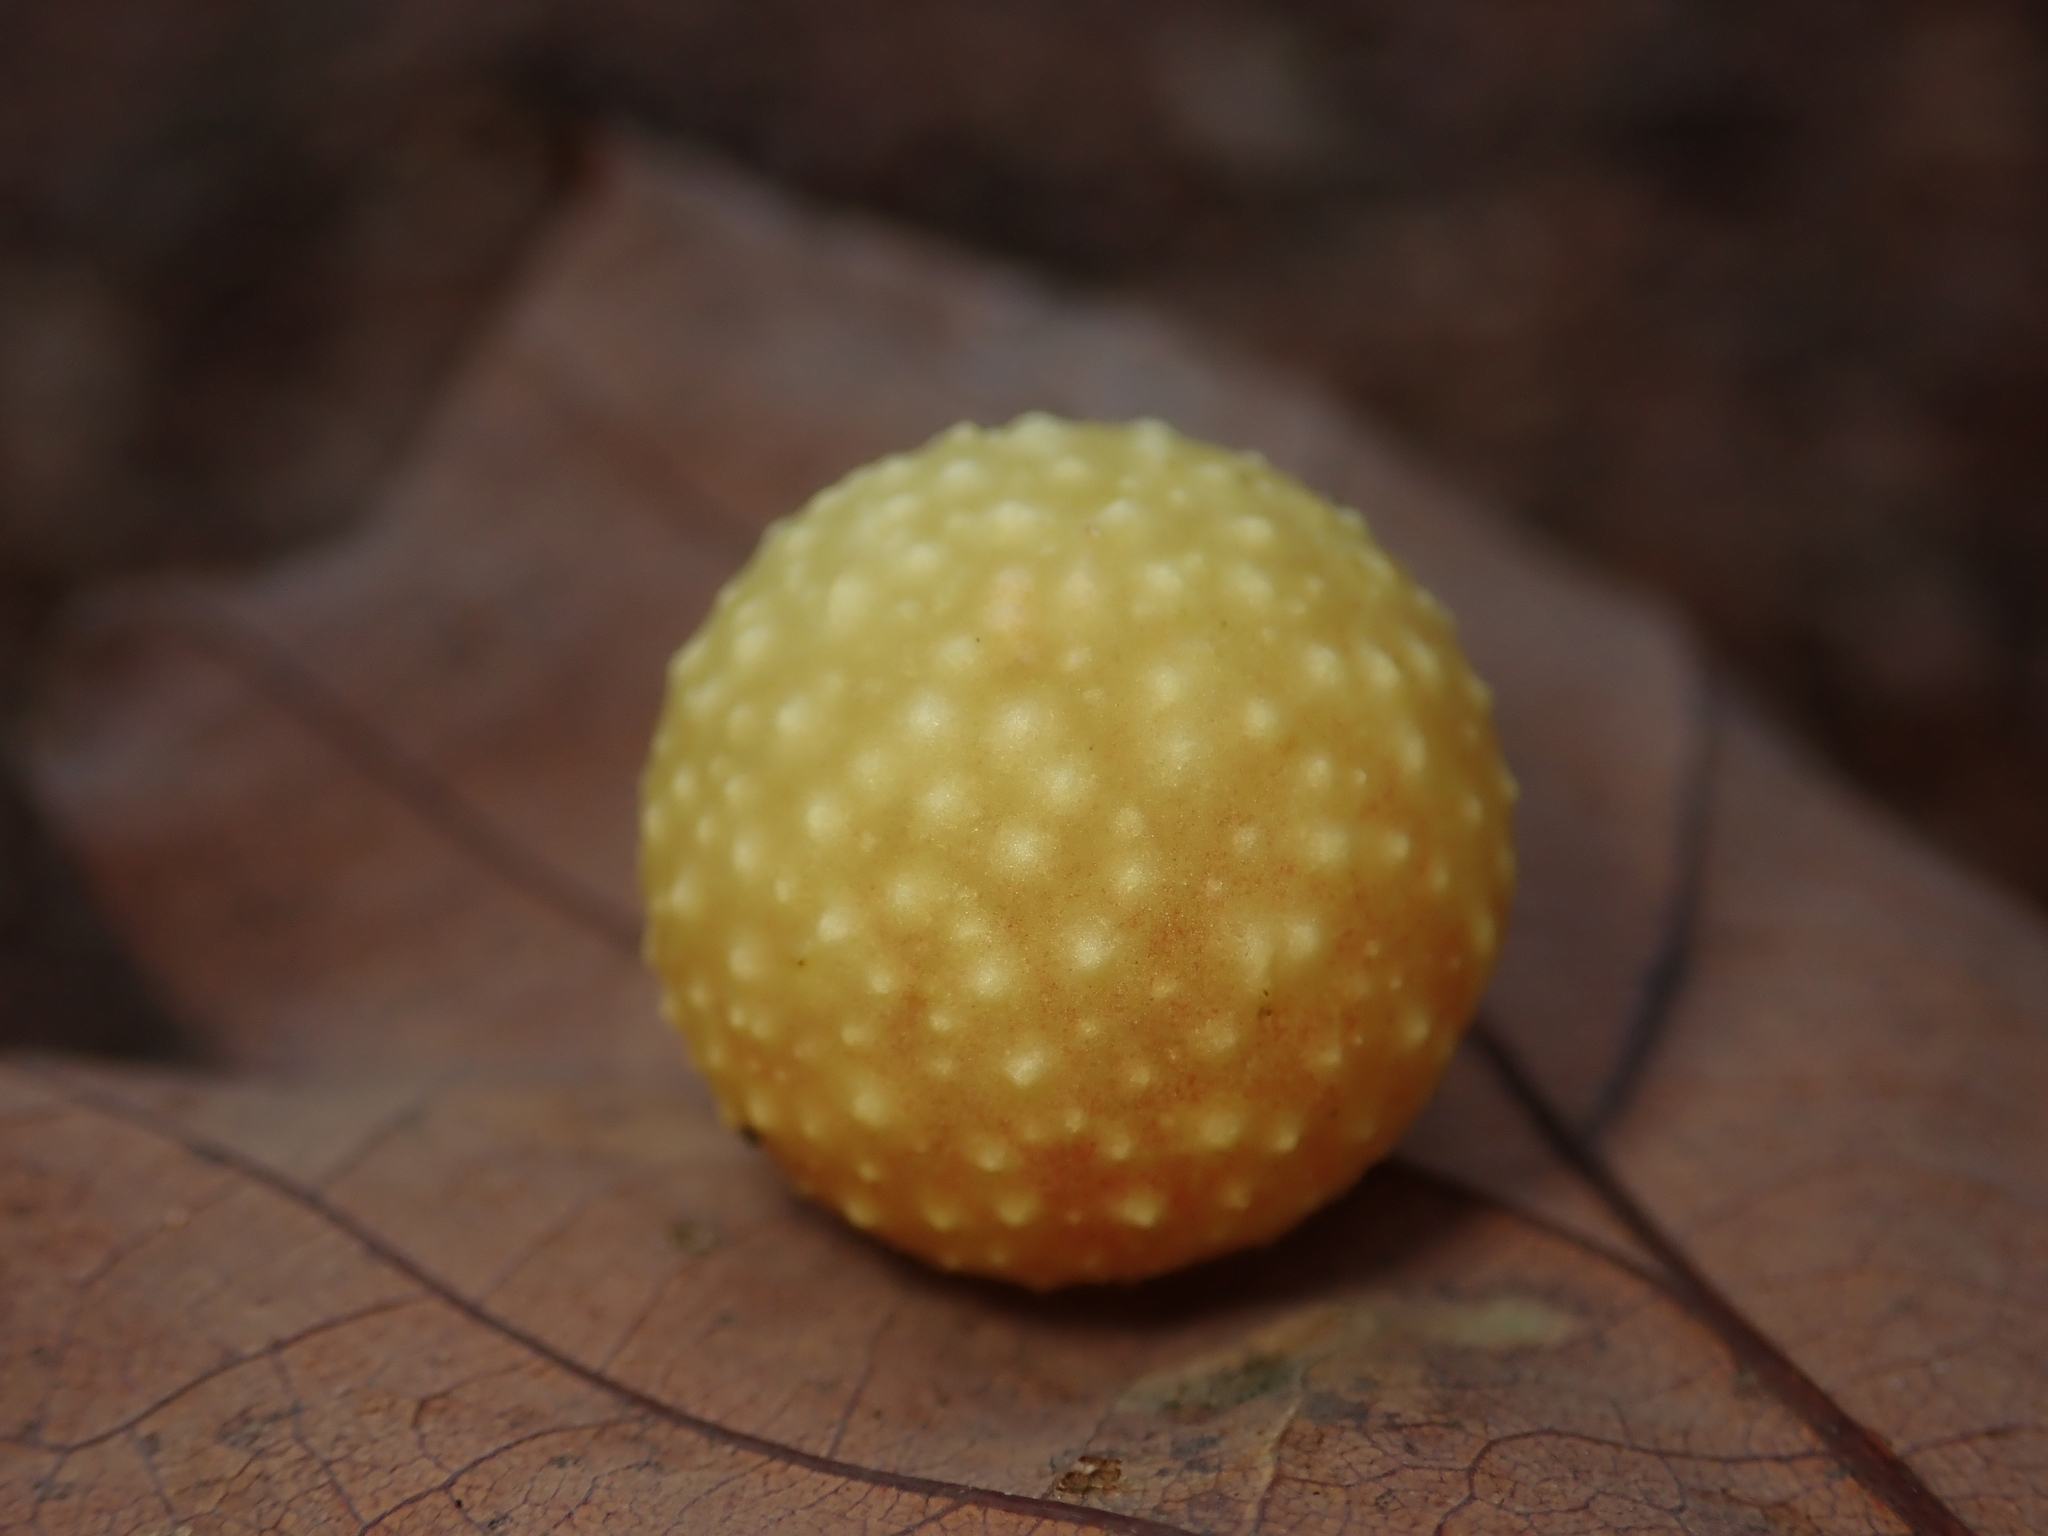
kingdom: Animalia
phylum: Arthropoda
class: Insecta
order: Hymenoptera
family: Cynipidae
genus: Cynips
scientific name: Cynips quercusfolii
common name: Cherry gall
